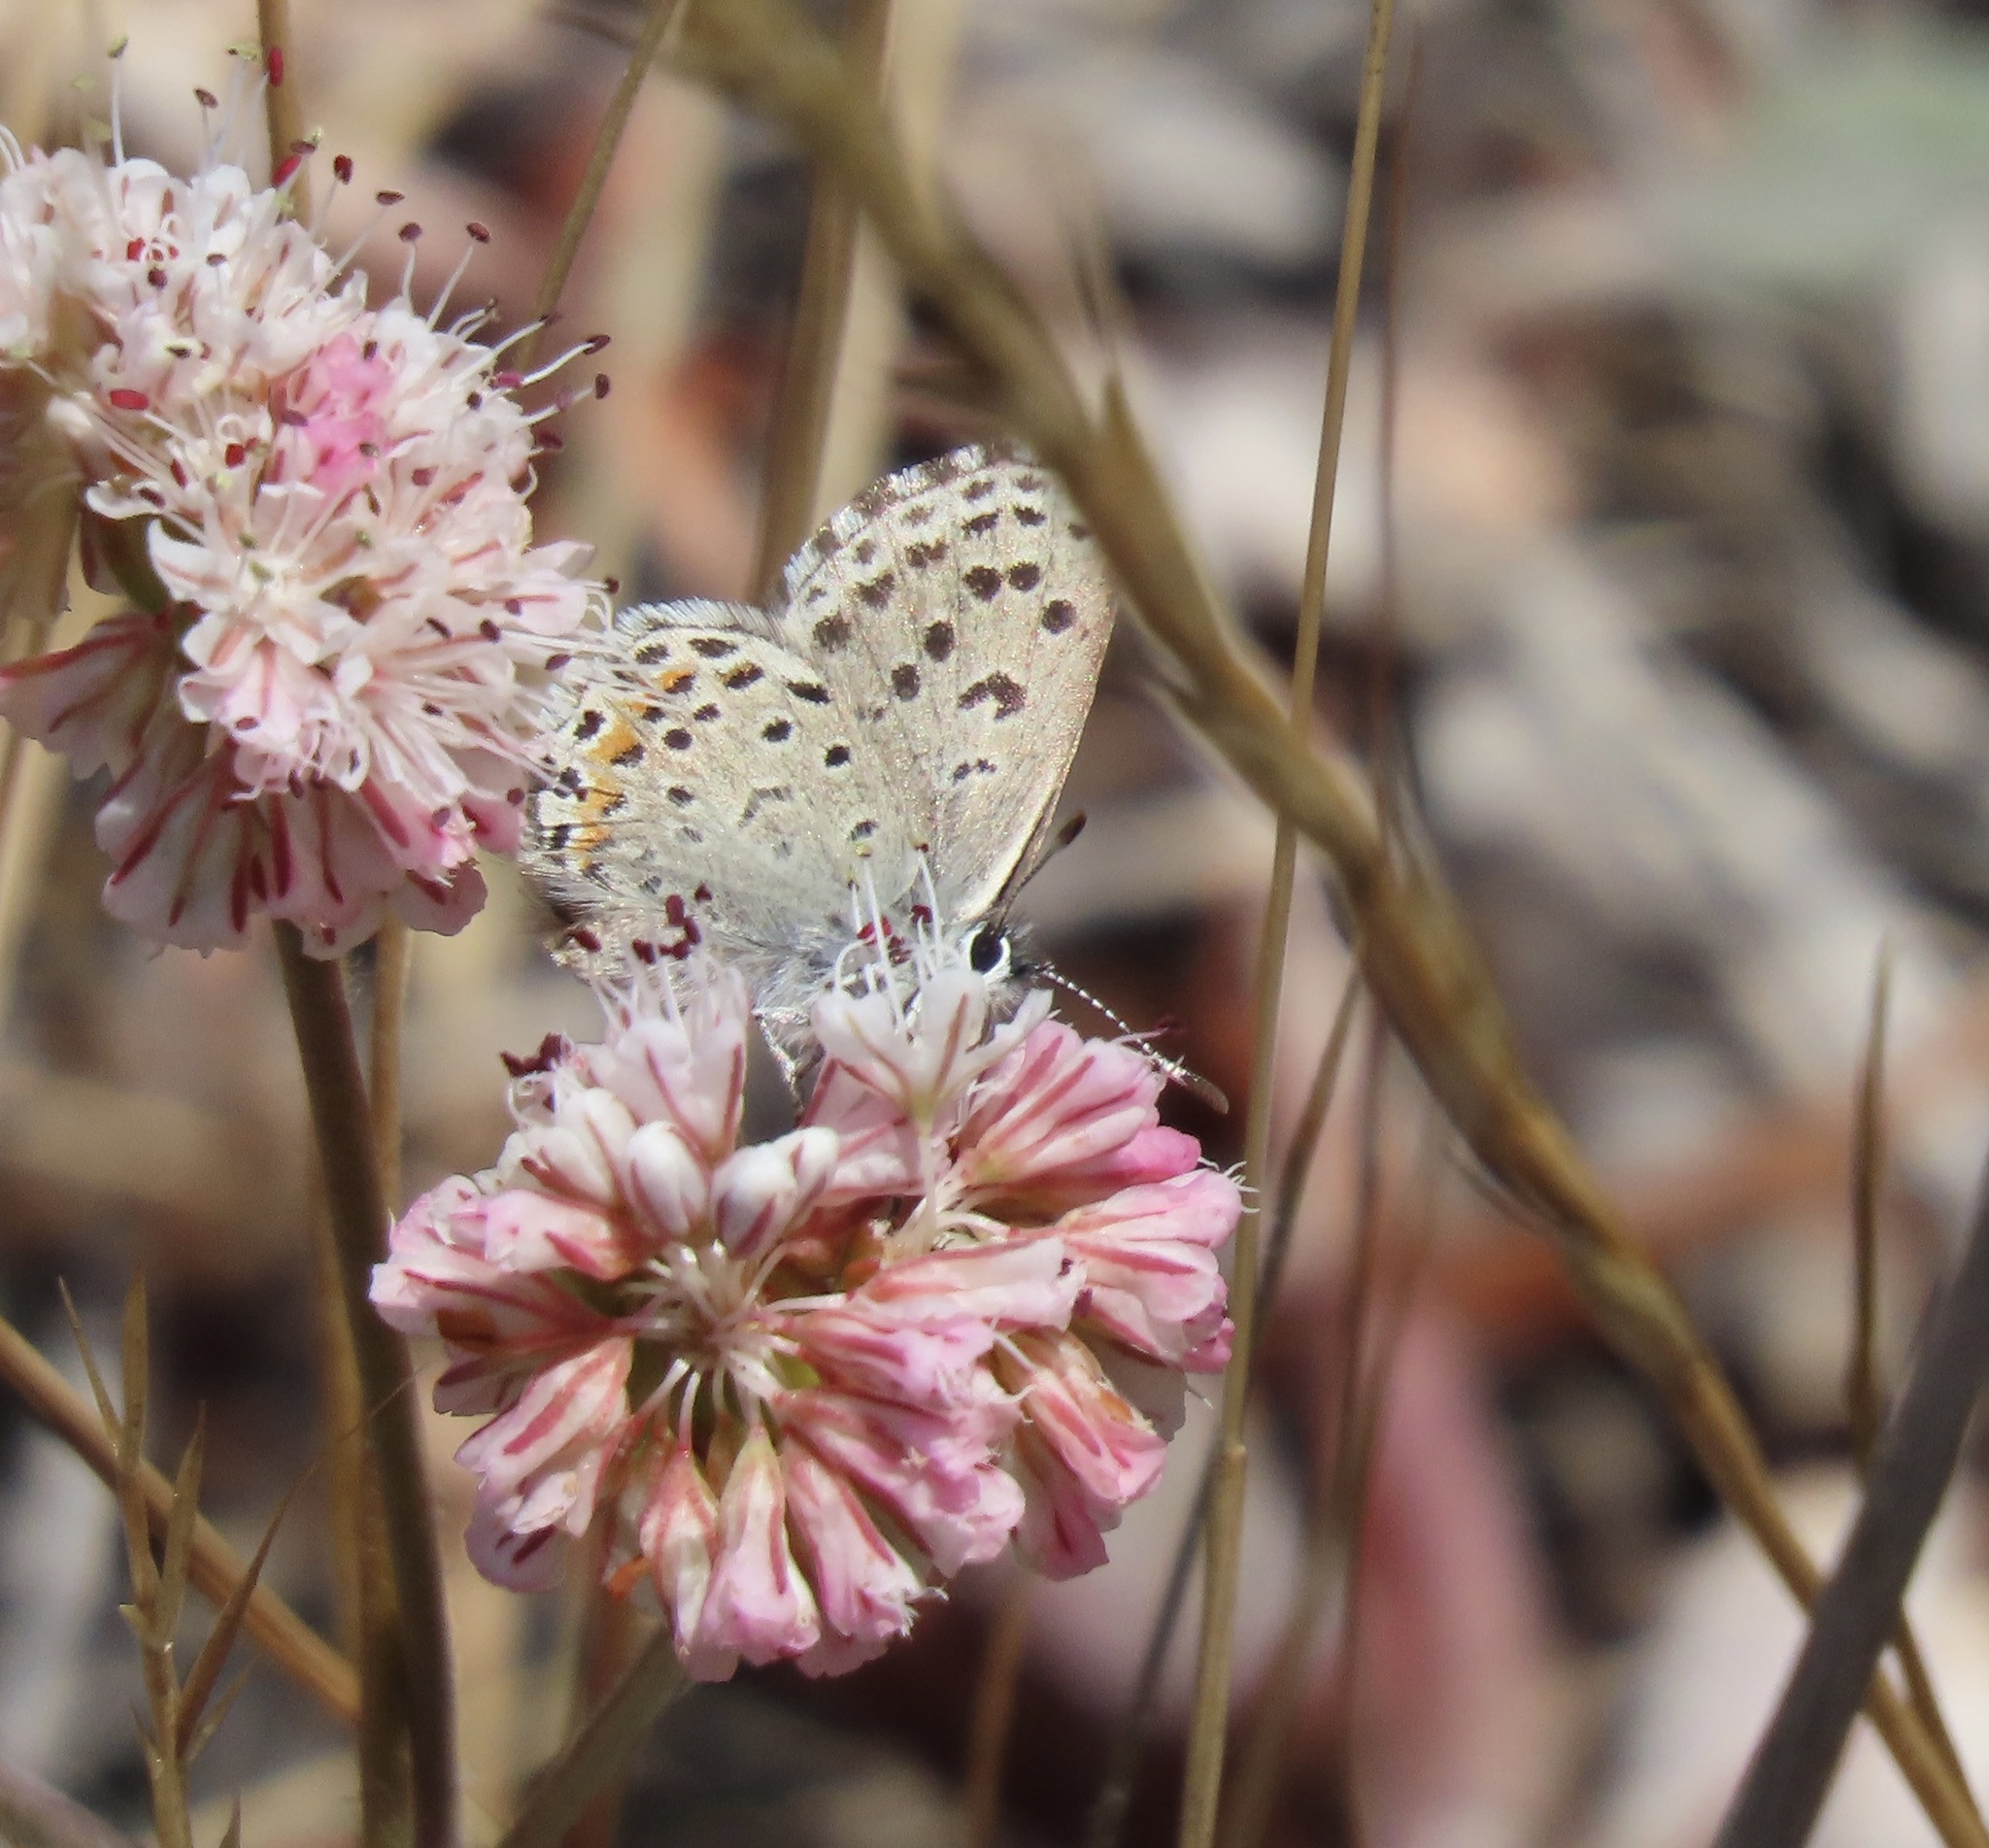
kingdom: Animalia
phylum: Arthropoda
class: Insecta
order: Lepidoptera
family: Lycaenidae
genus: Euphilotes
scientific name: Euphilotes enoptes
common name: Dotted blue
